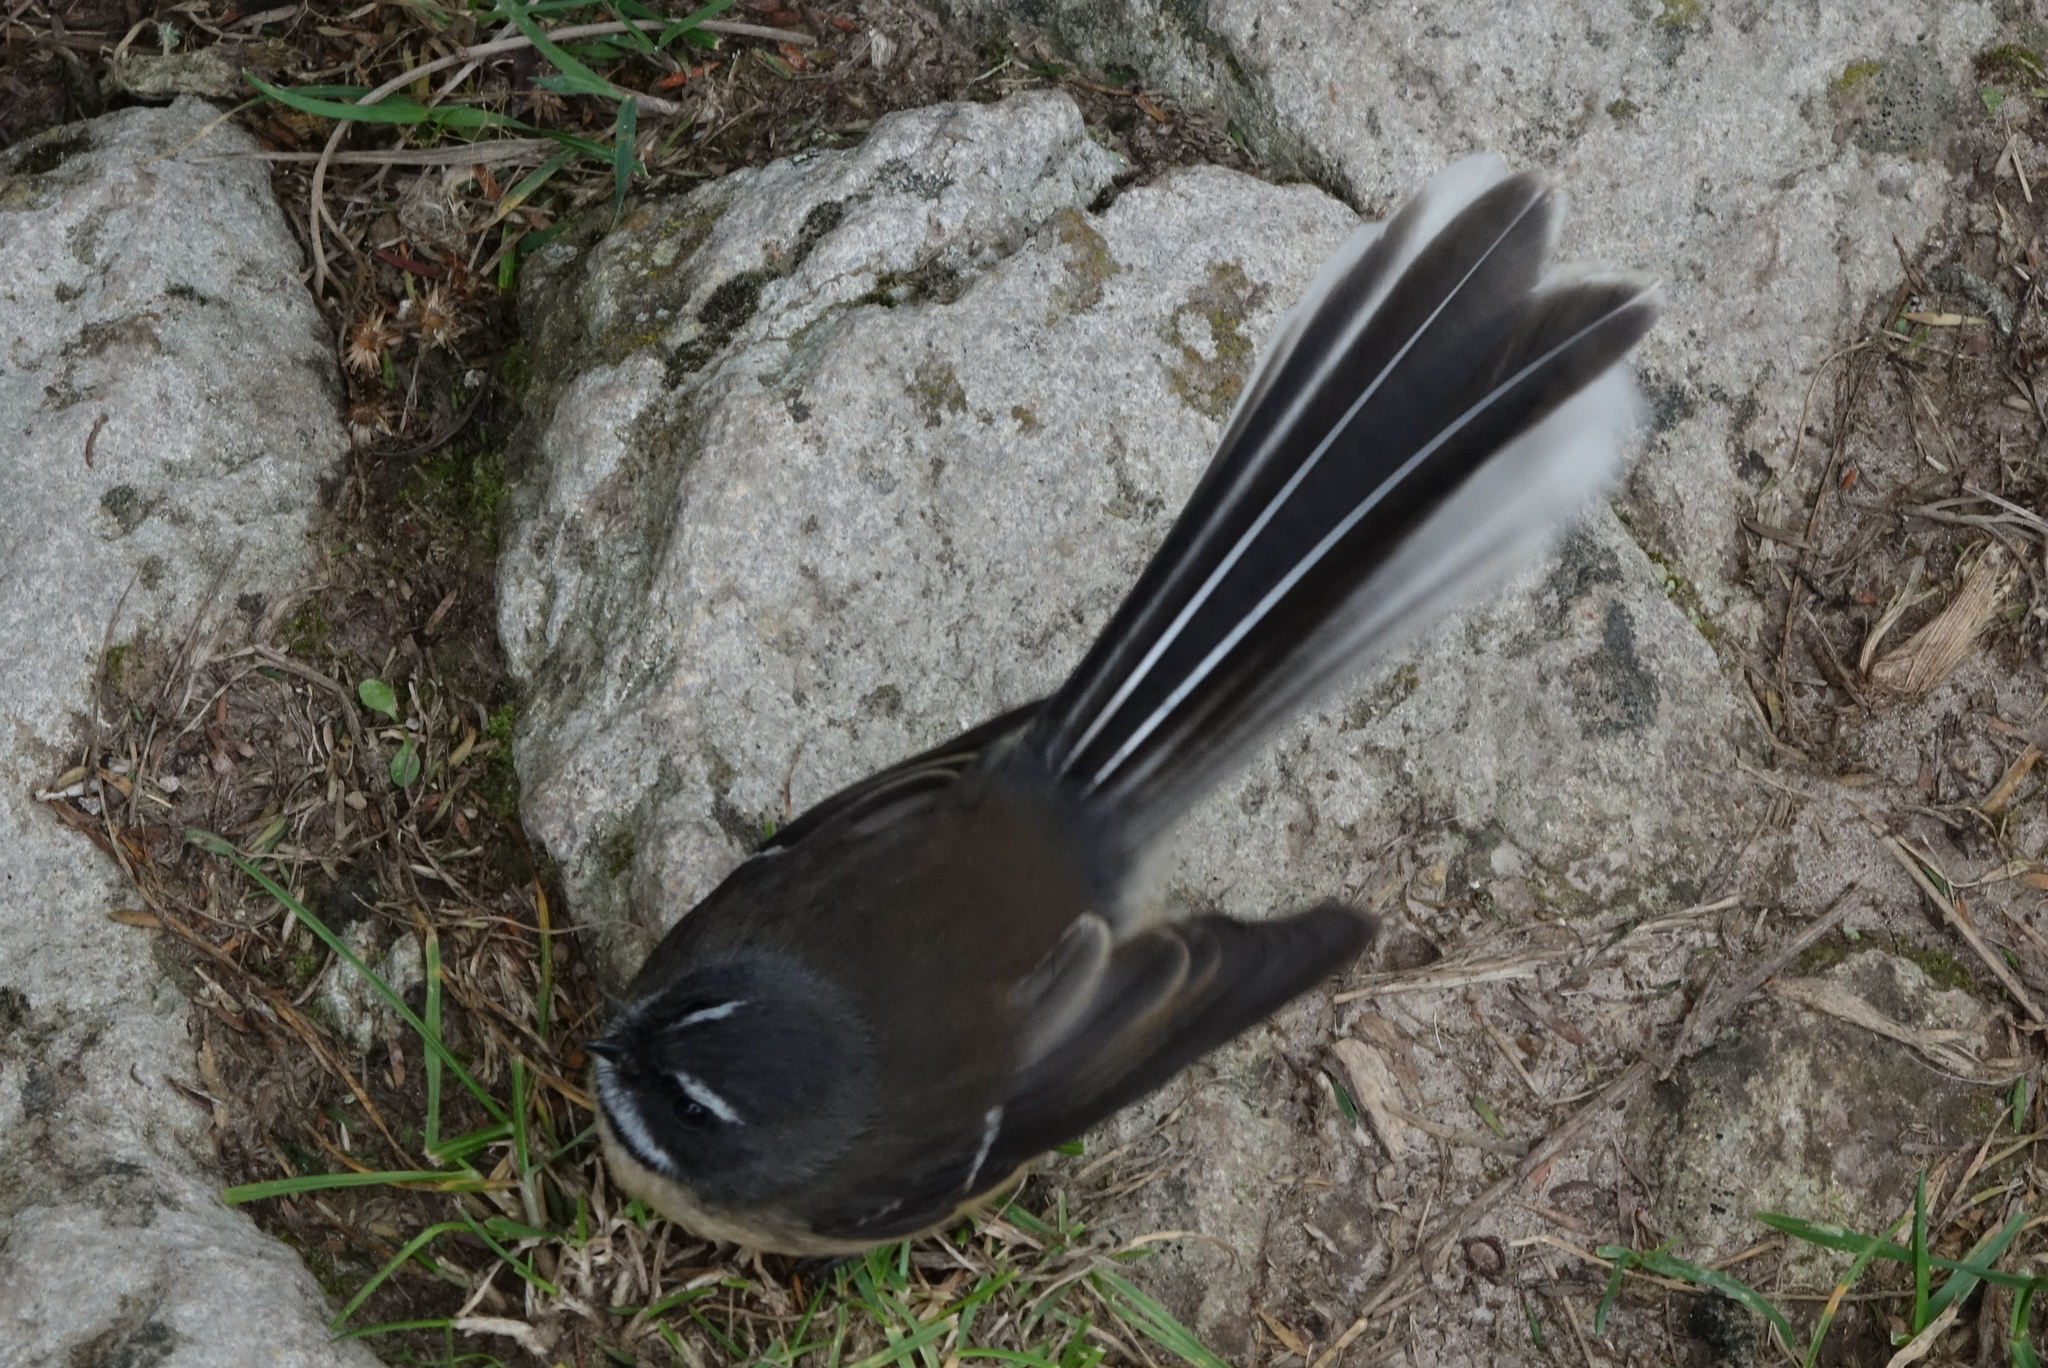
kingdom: Animalia
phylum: Chordata
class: Aves
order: Passeriformes
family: Rhipiduridae
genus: Rhipidura
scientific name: Rhipidura fuliginosa
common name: New zealand fantail
